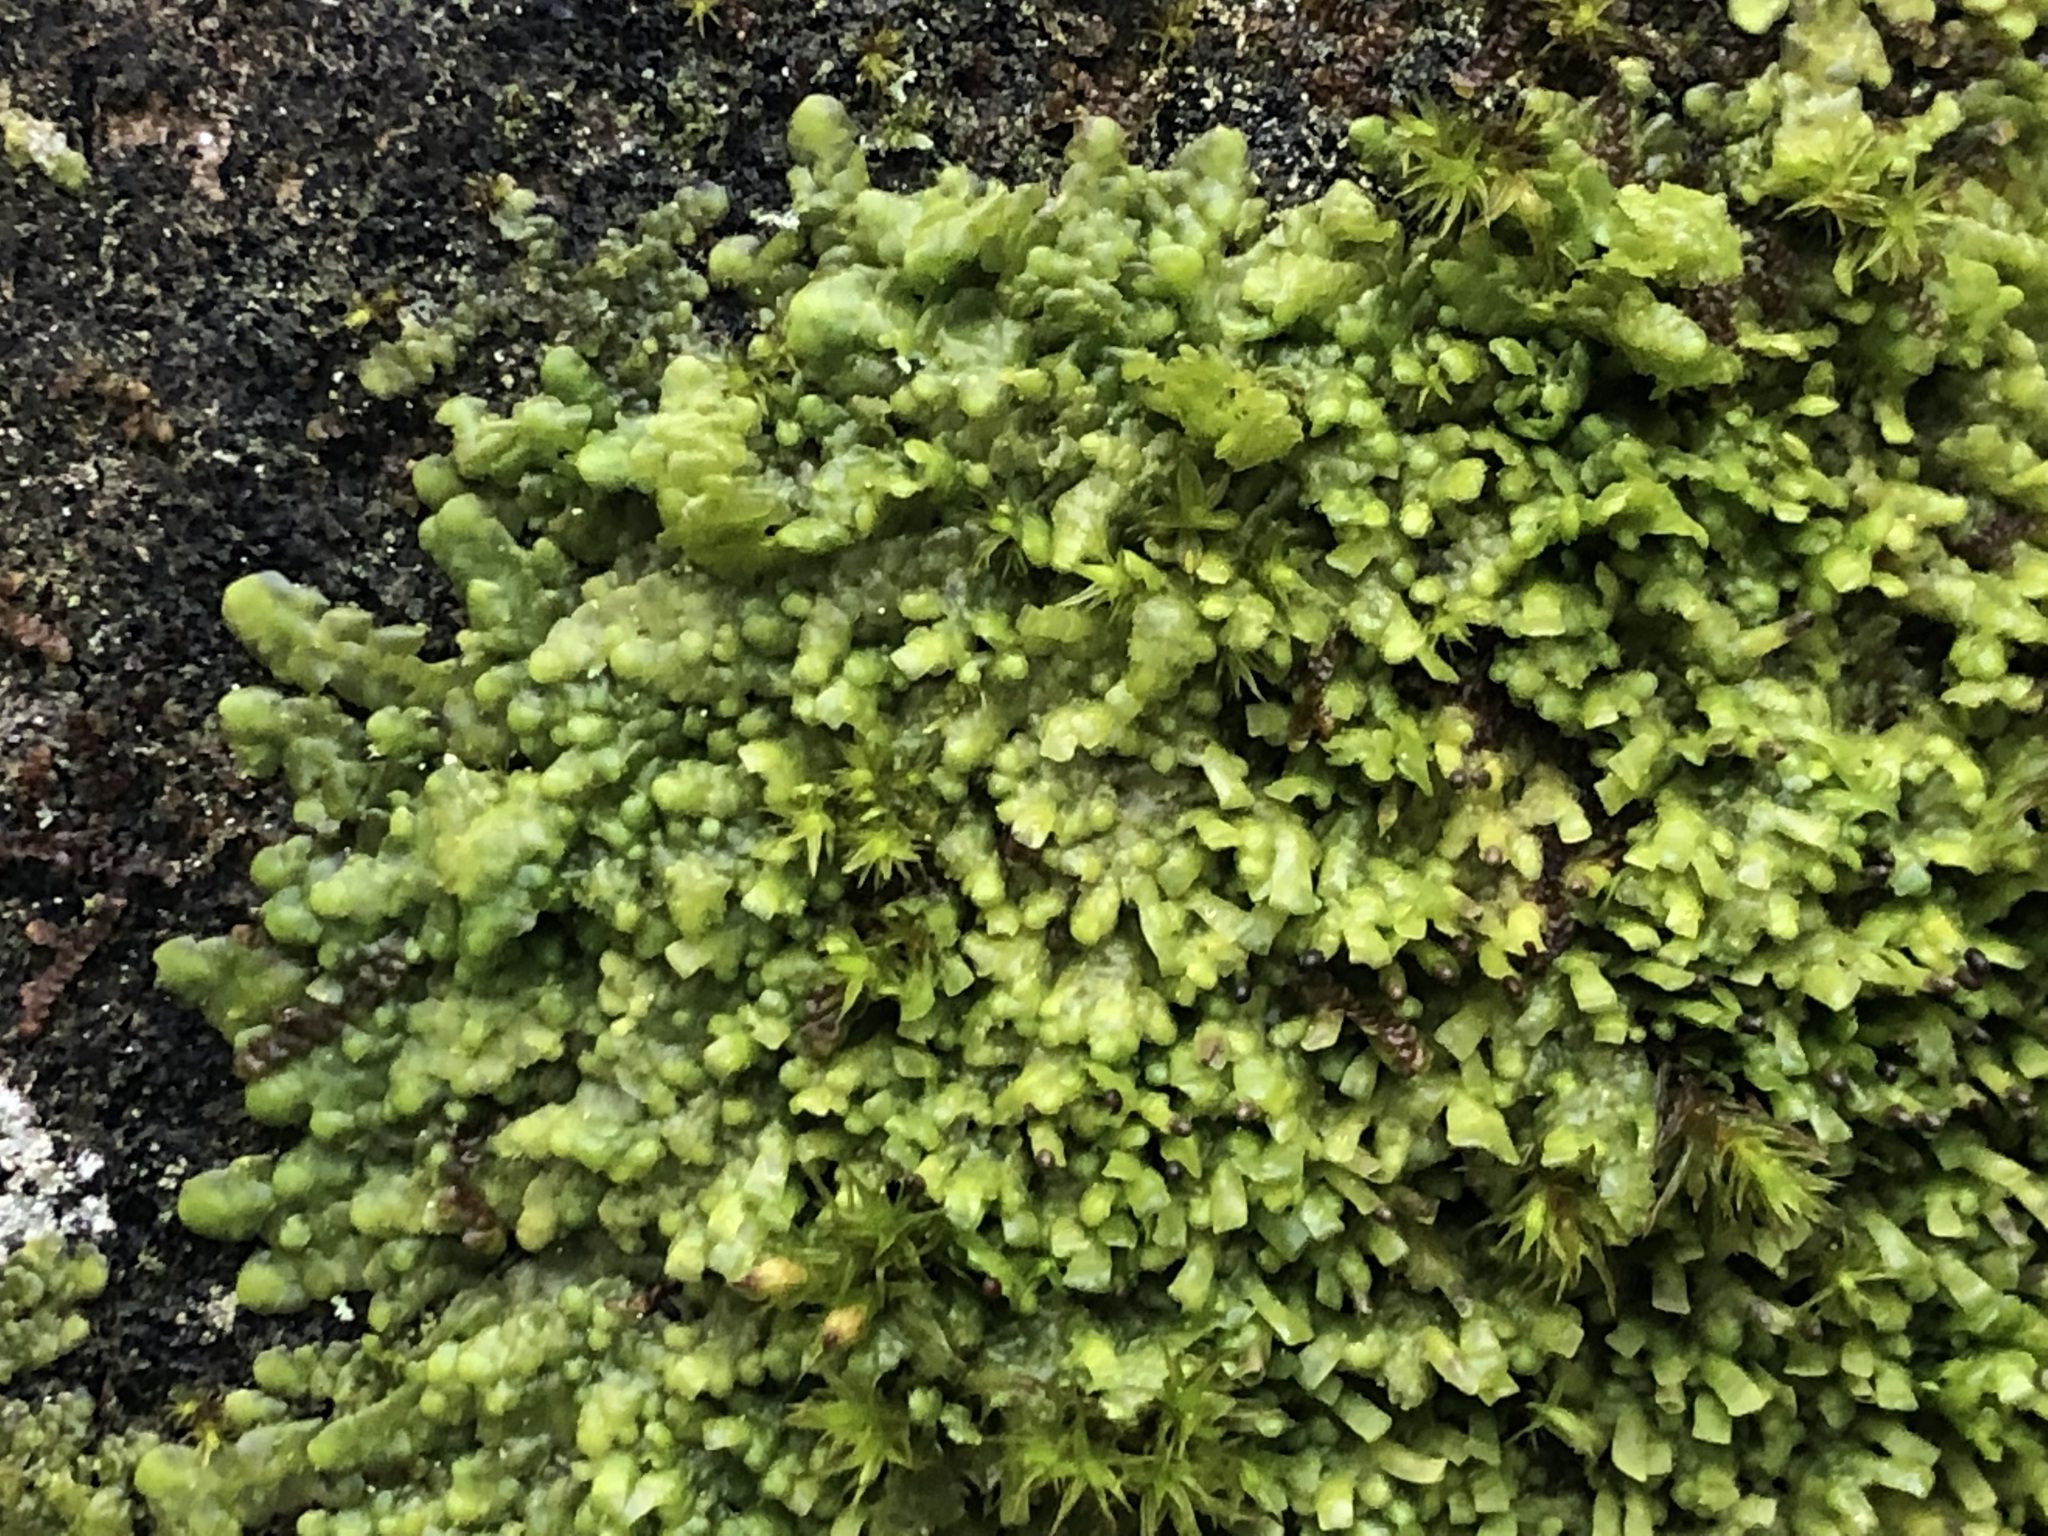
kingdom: Plantae
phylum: Marchantiophyta
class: Jungermanniopsida
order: Porellales
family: Radulaceae
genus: Radula
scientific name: Radula complanata
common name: Flat-leaved scalewort
